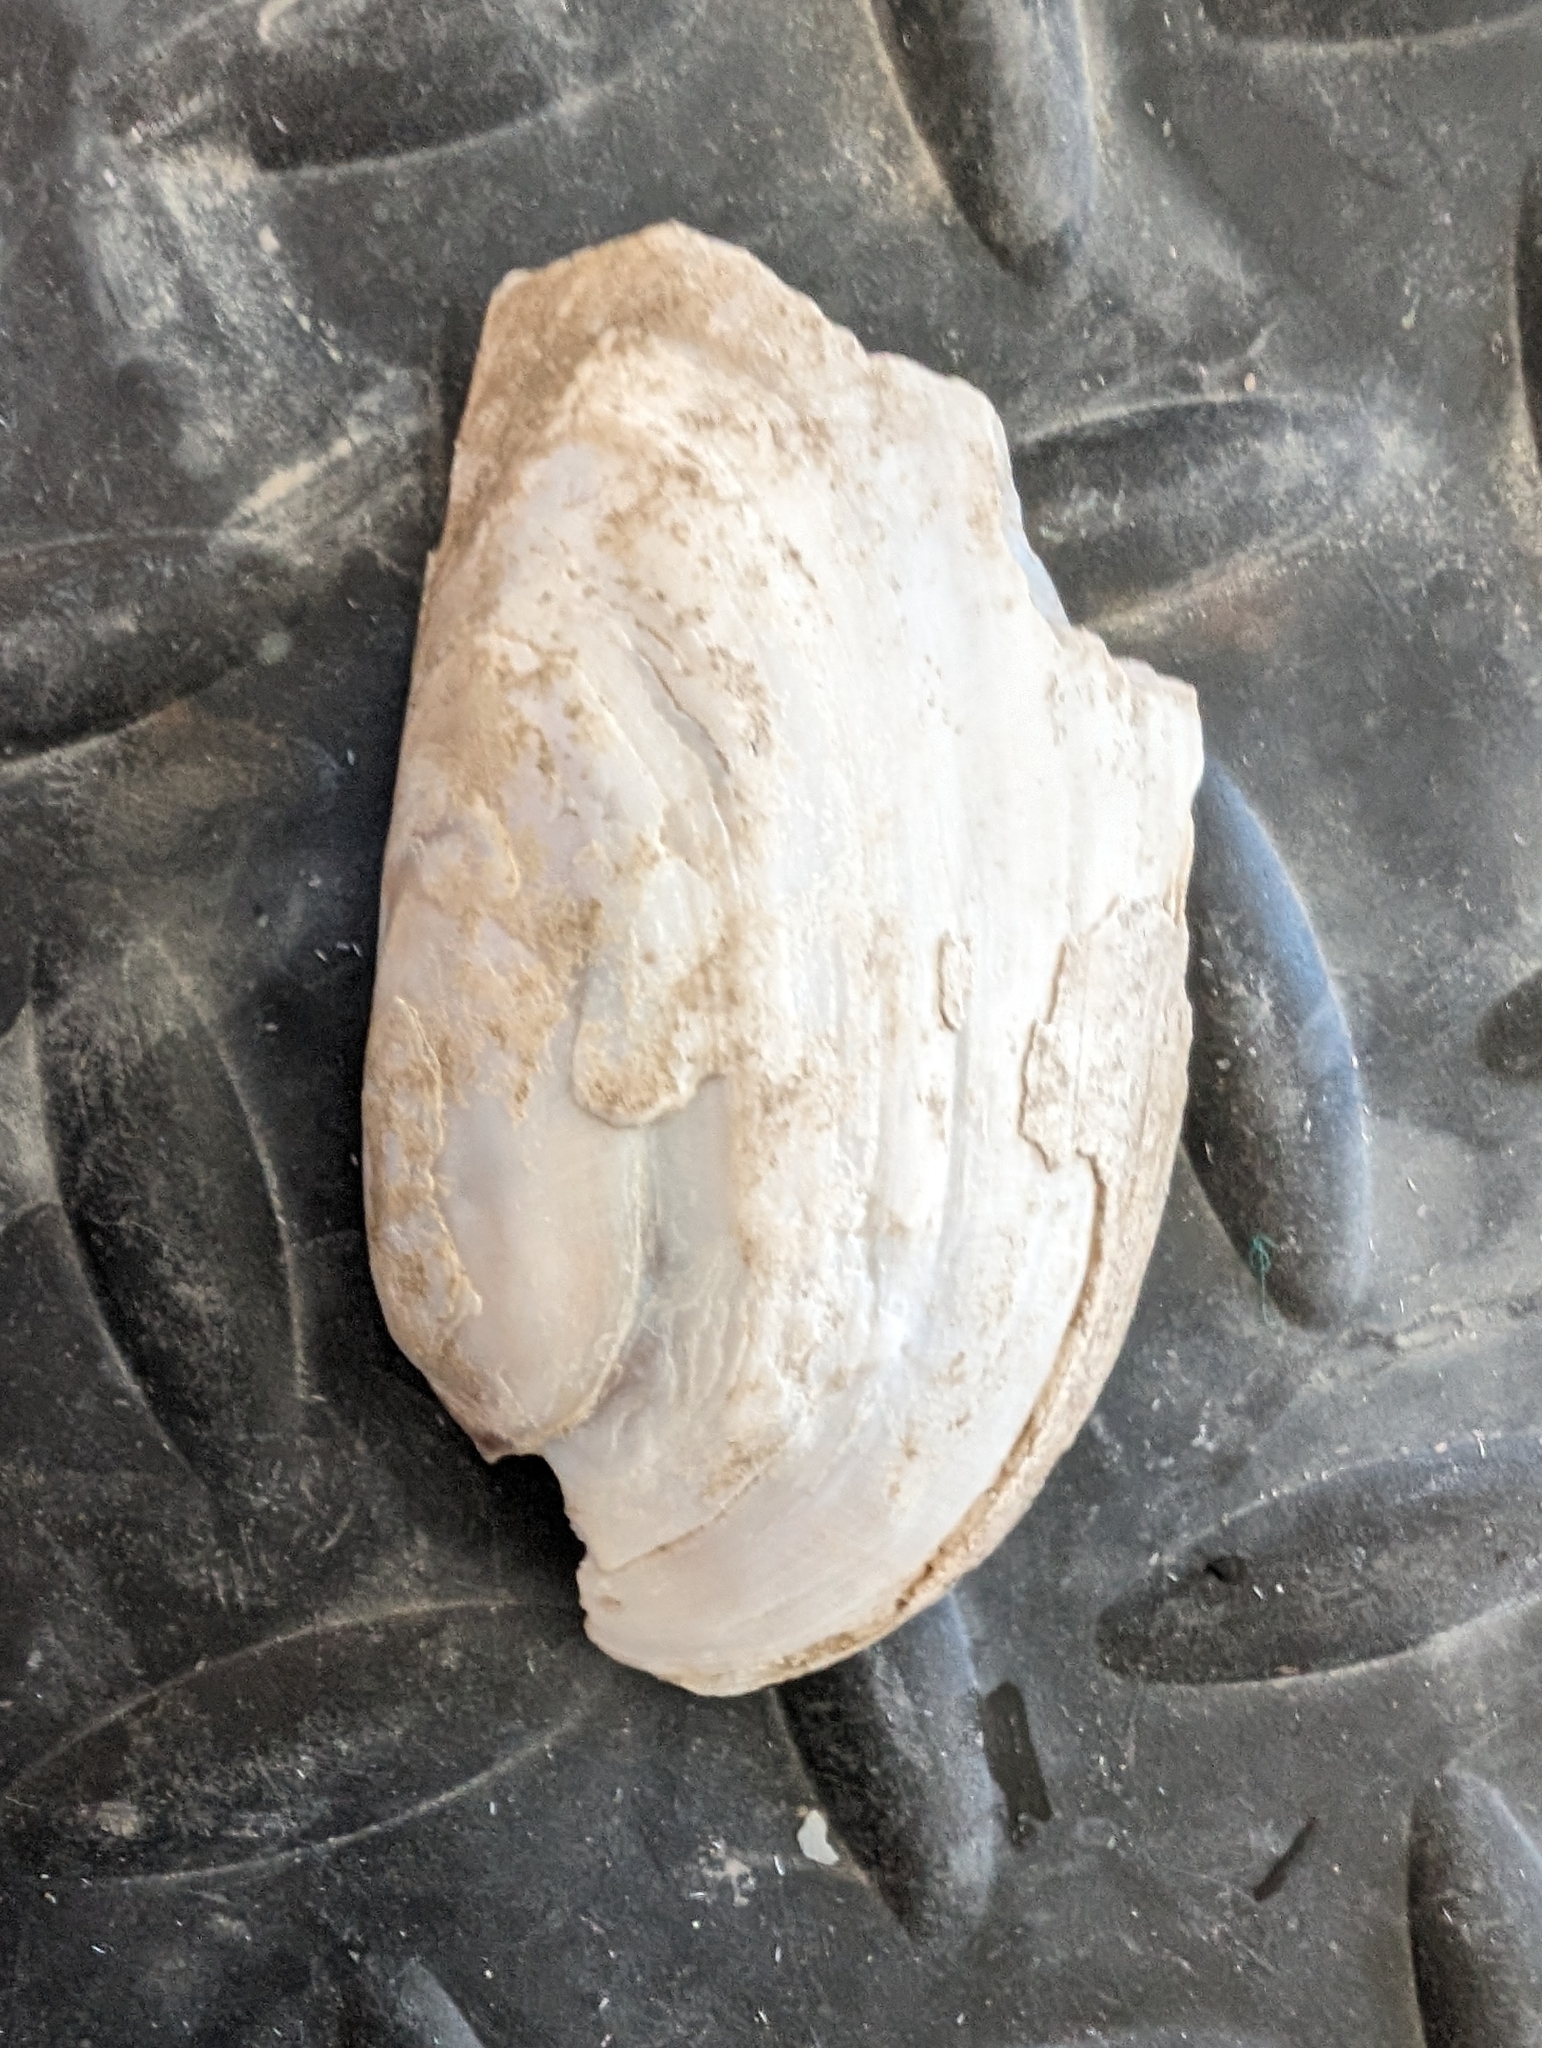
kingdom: Animalia
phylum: Mollusca
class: Bivalvia
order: Unionida
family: Unionidae
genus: Ligumia
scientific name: Ligumia recta
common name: Black sandshell
